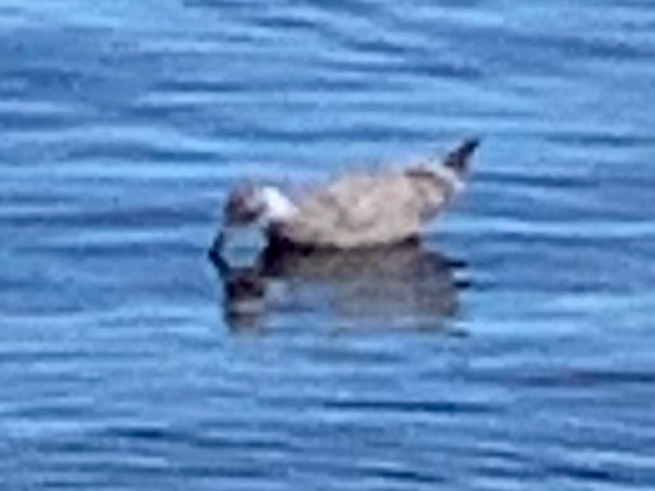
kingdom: Animalia
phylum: Chordata
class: Aves
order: Charadriiformes
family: Laridae
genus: Larus
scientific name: Larus
